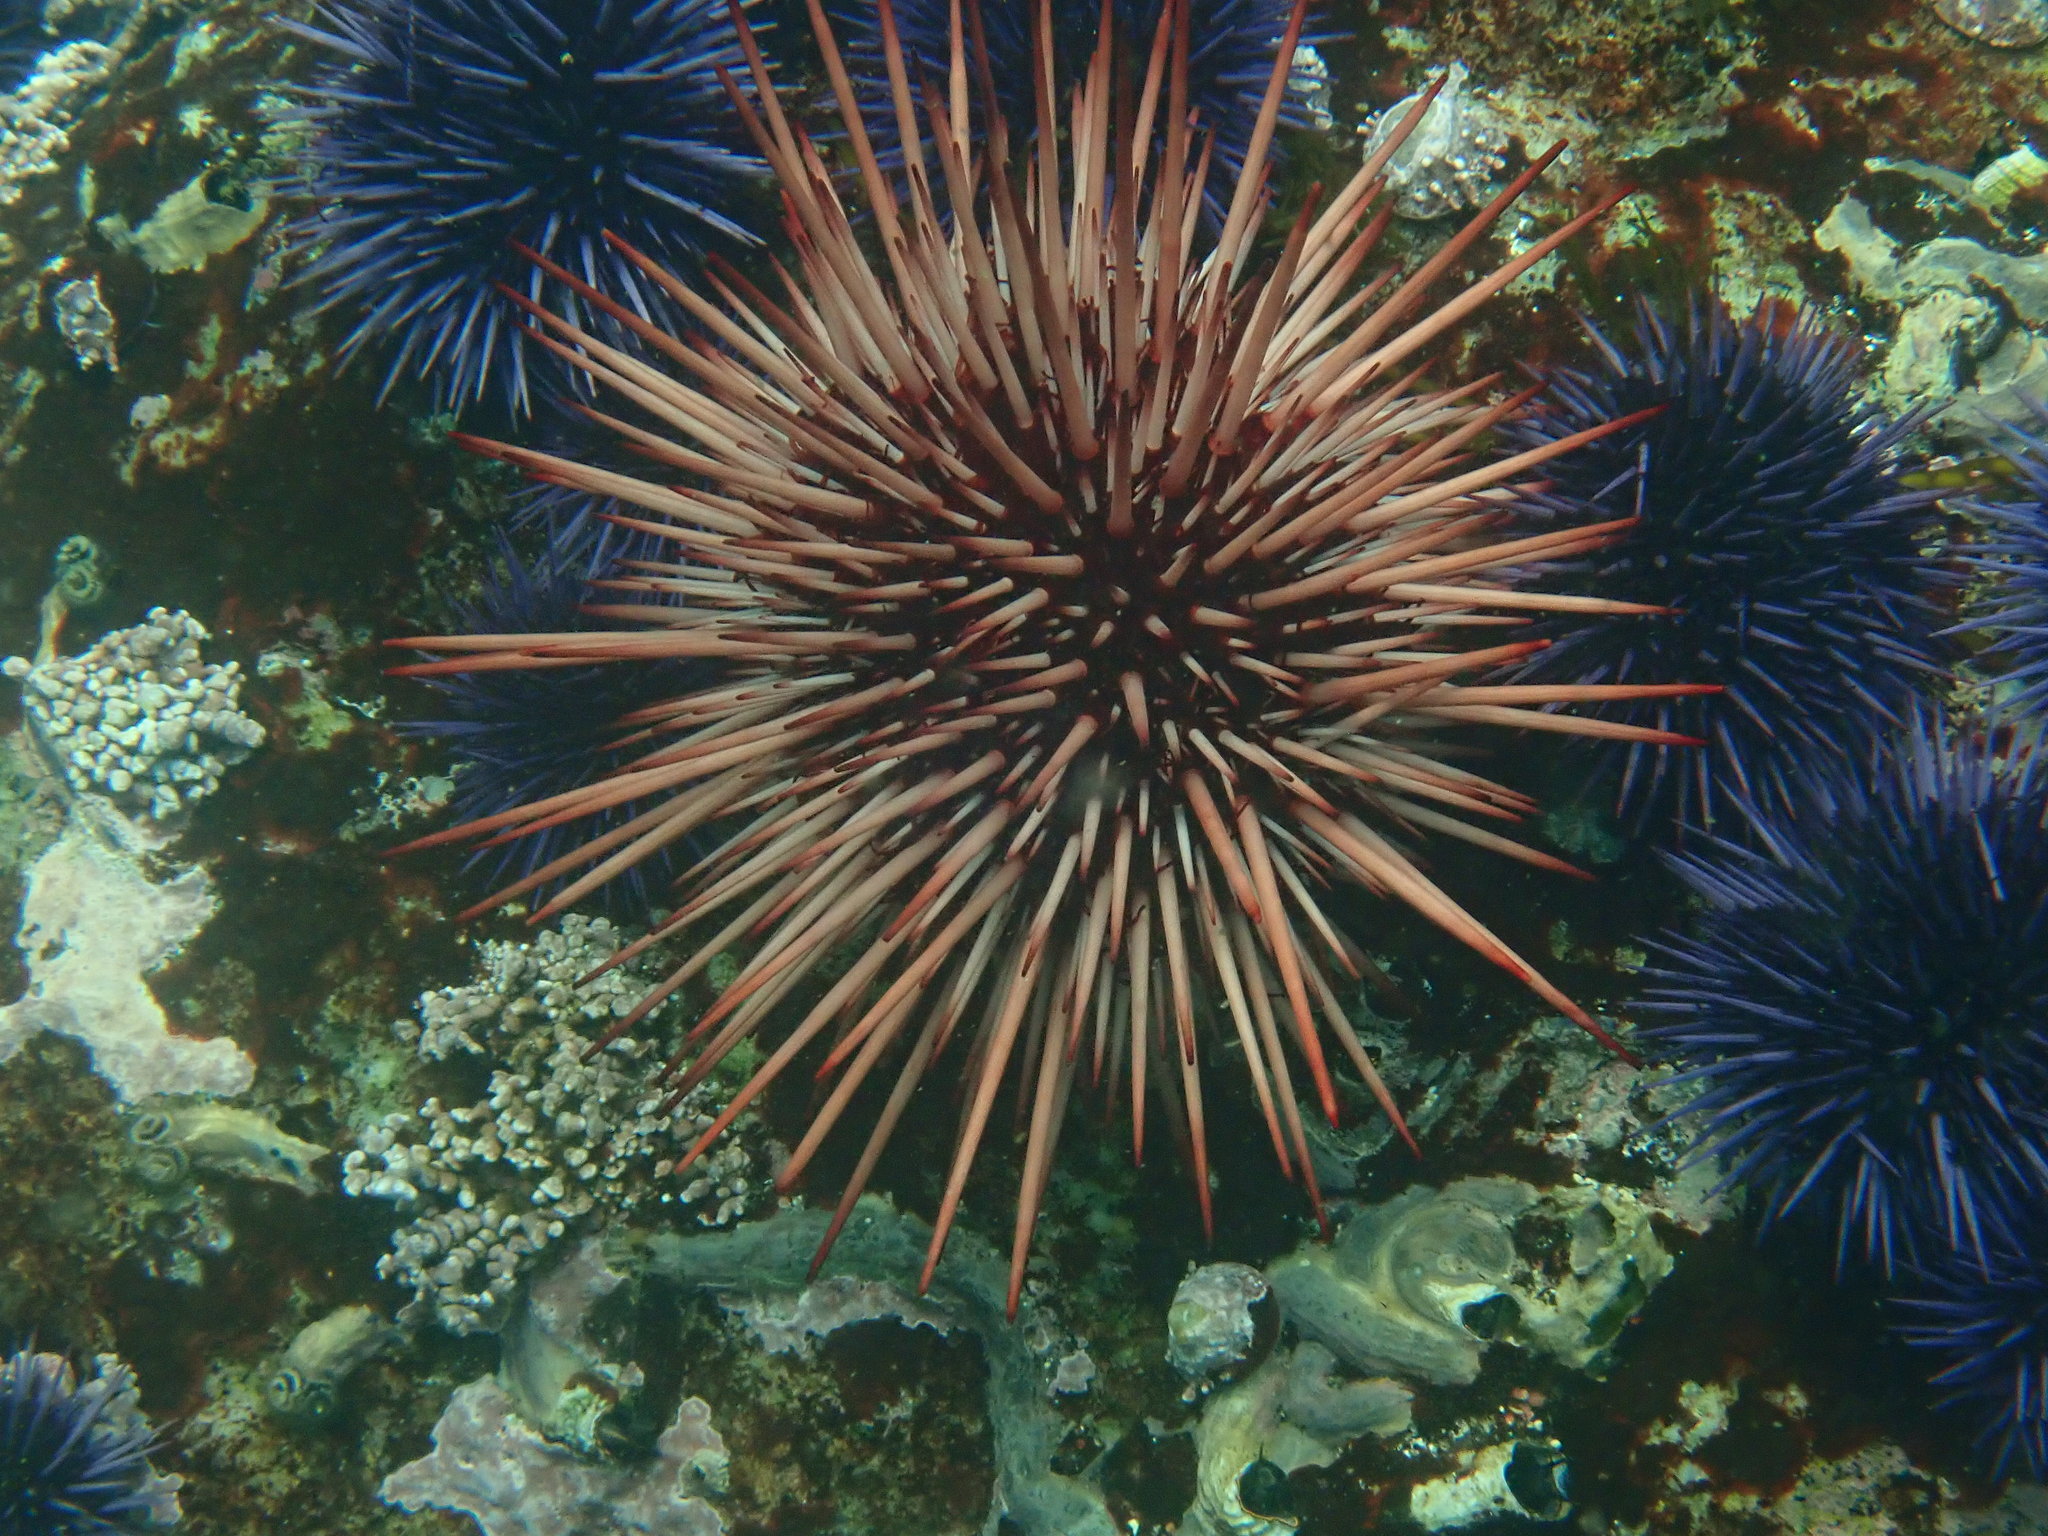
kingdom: Animalia
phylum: Echinodermata
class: Echinoidea
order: Camarodonta
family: Strongylocentrotidae
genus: Mesocentrotus
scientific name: Mesocentrotus franciscanus
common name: Red sea urchin
